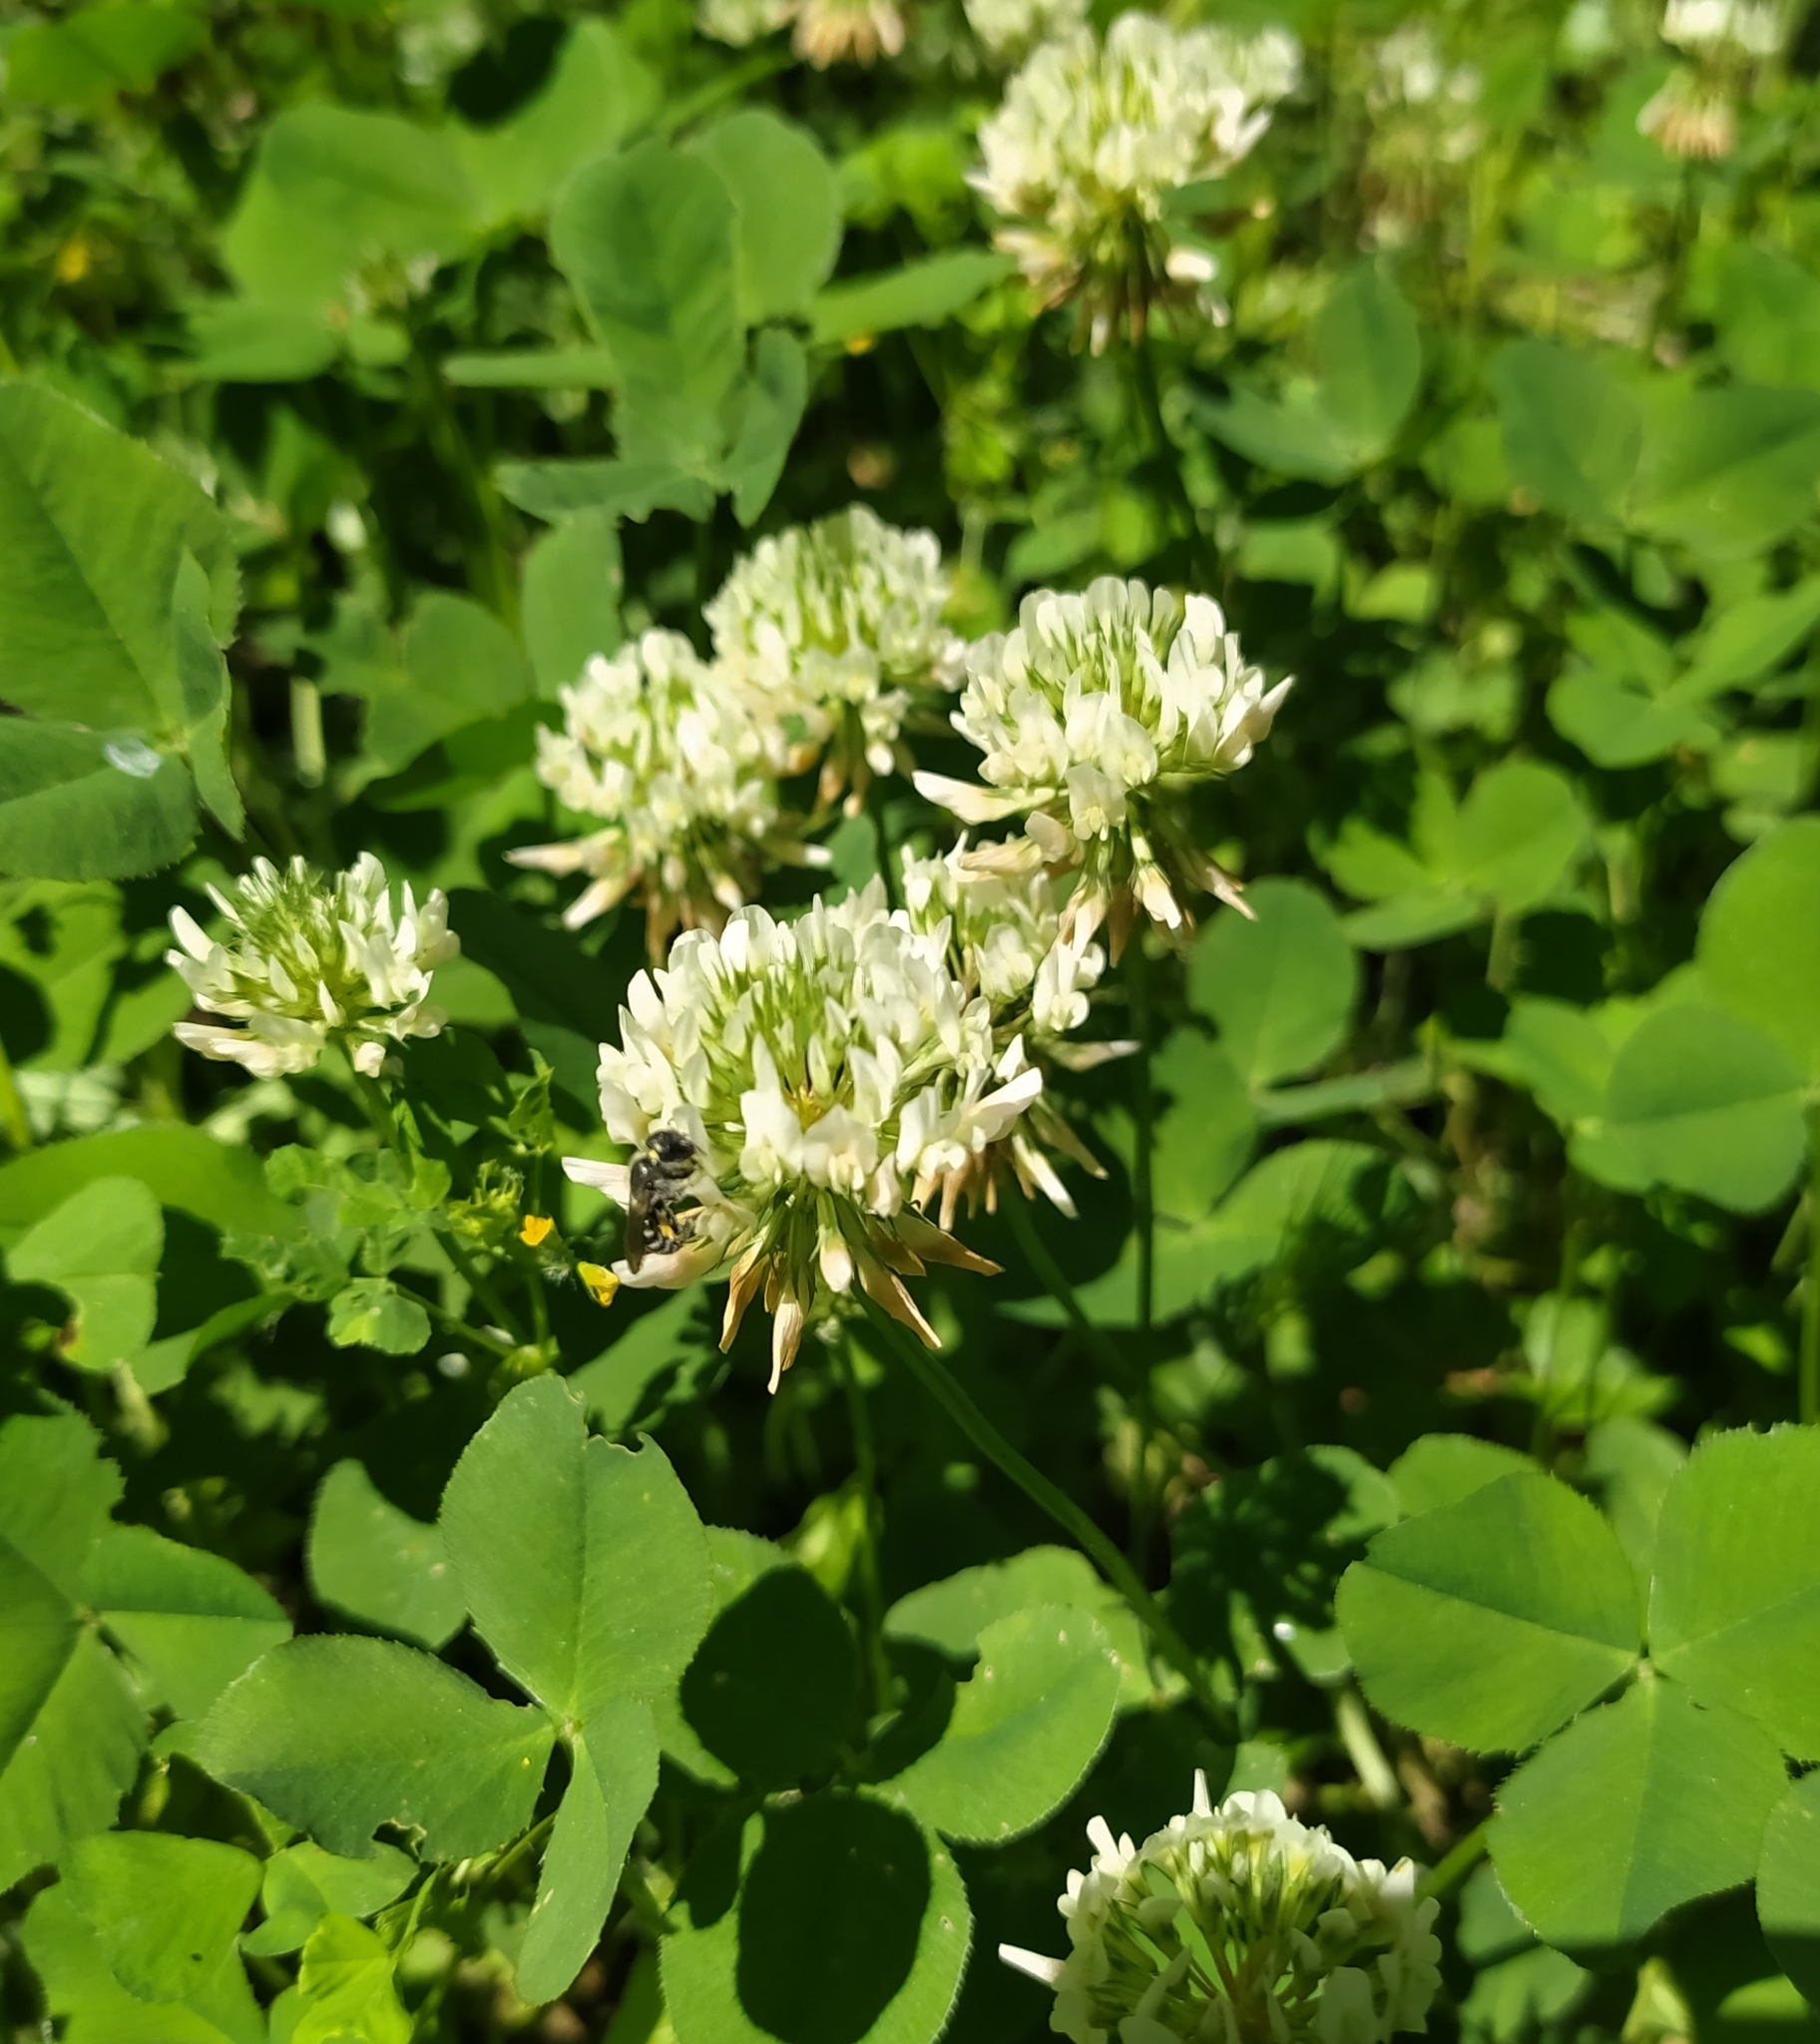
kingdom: Plantae
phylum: Tracheophyta
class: Magnoliopsida
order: Fabales
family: Fabaceae
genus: Trifolium
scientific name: Trifolium nigrescens
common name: Small white clover
